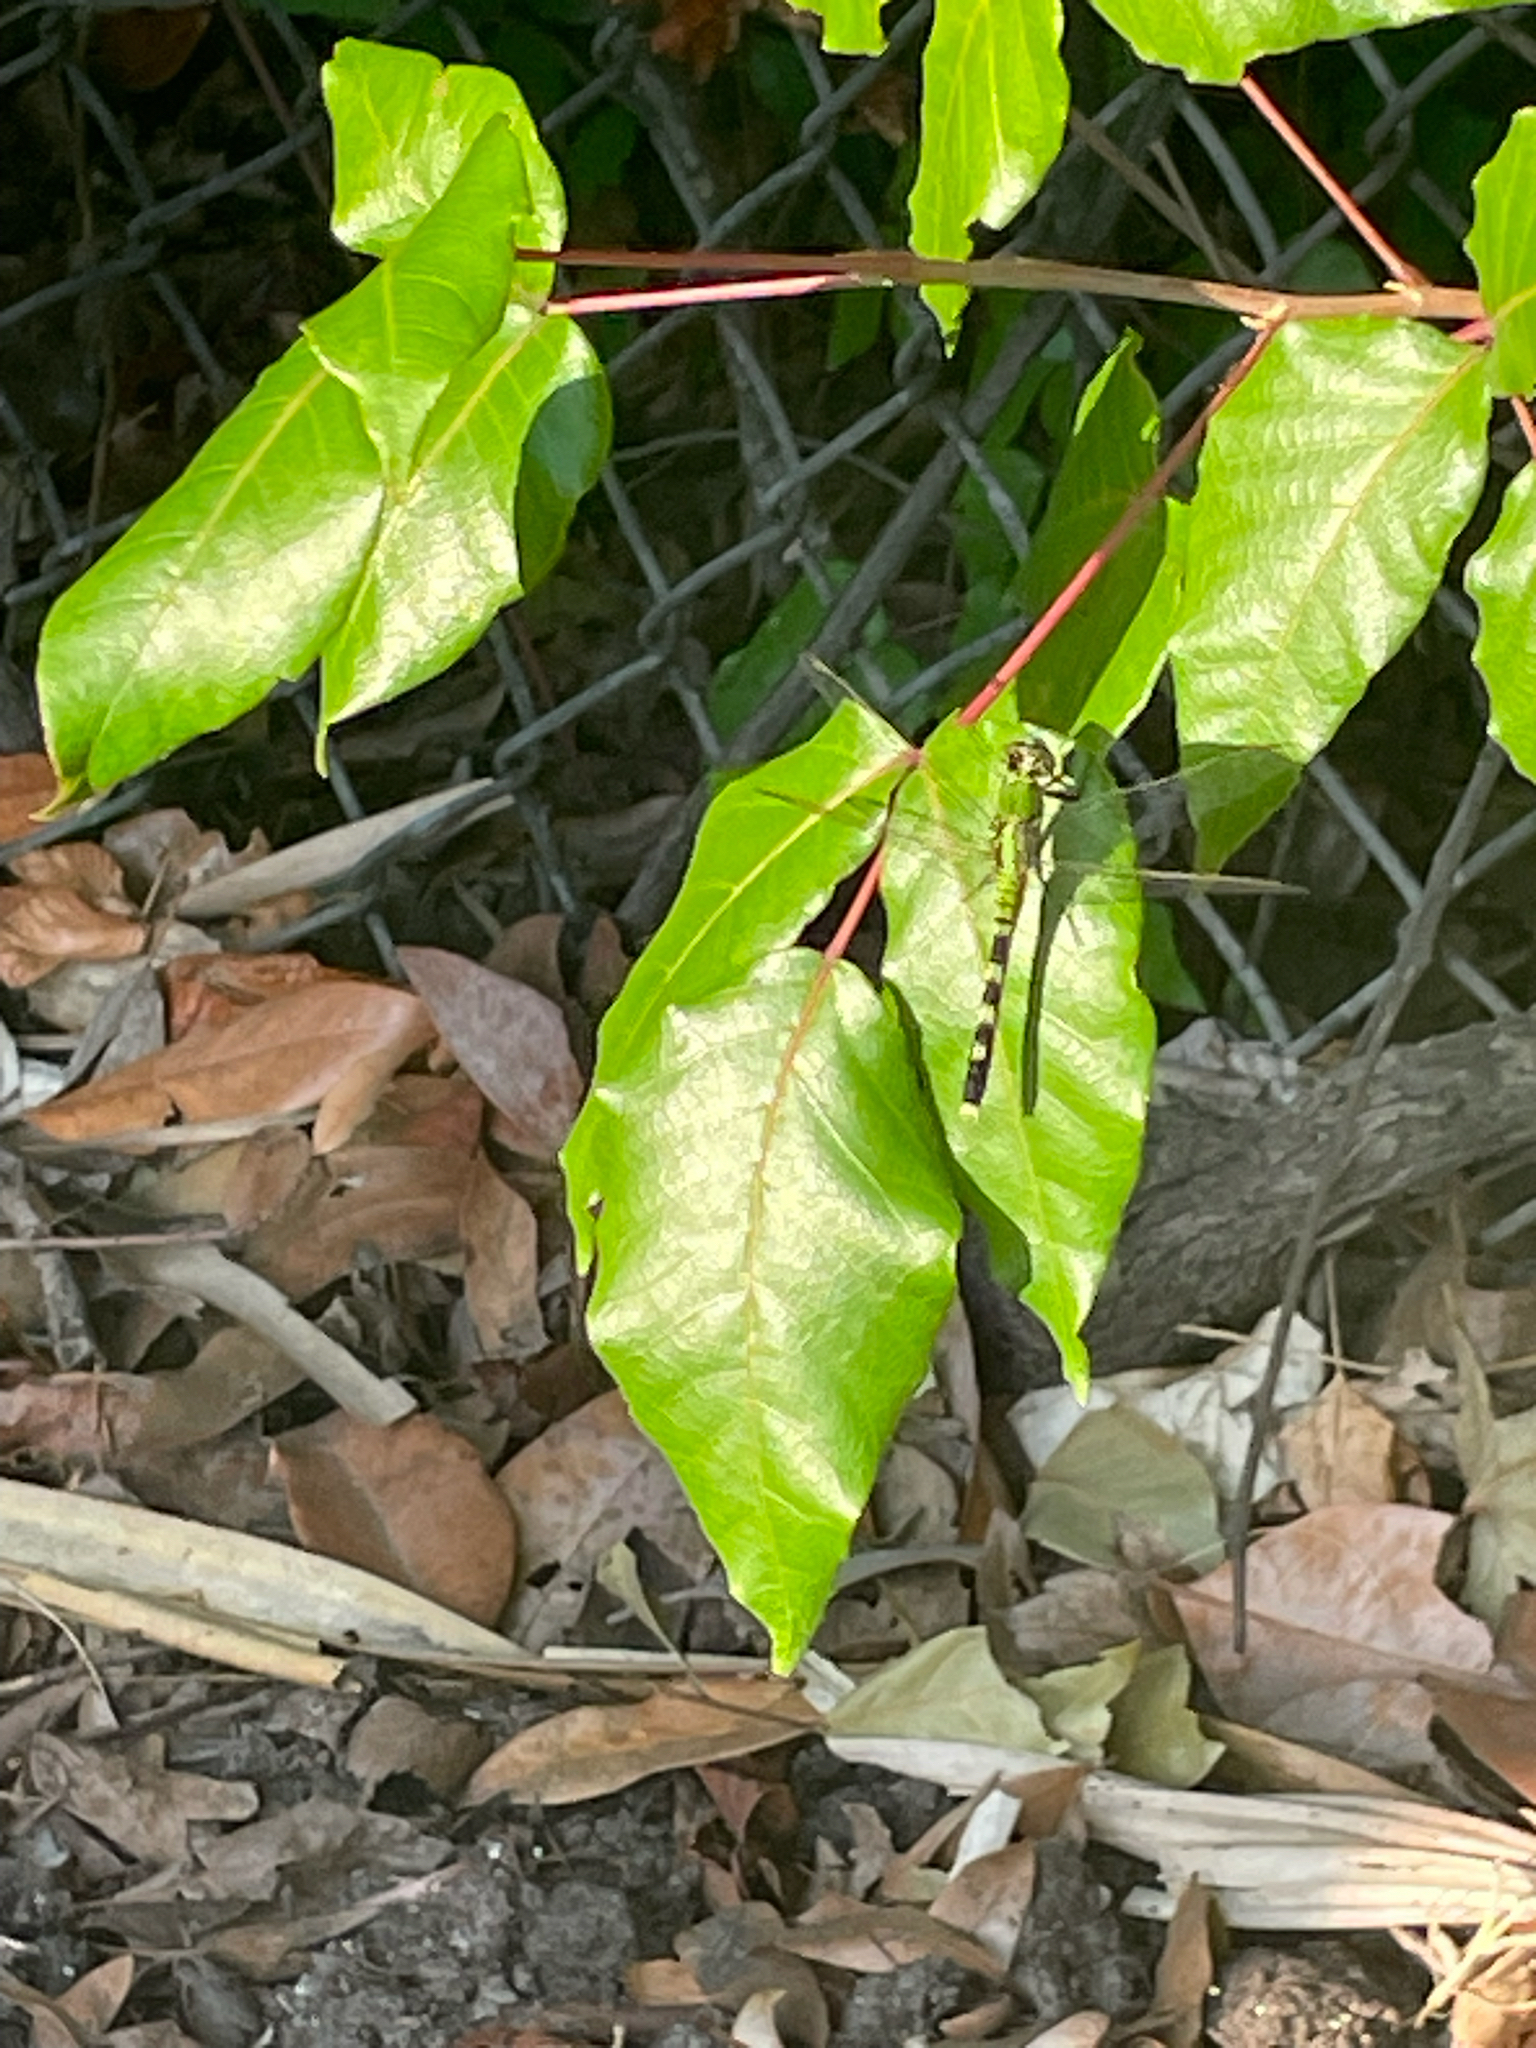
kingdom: Animalia
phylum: Arthropoda
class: Insecta
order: Odonata
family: Libellulidae
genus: Erythemis
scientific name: Erythemis simplicicollis
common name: Eastern pondhawk
